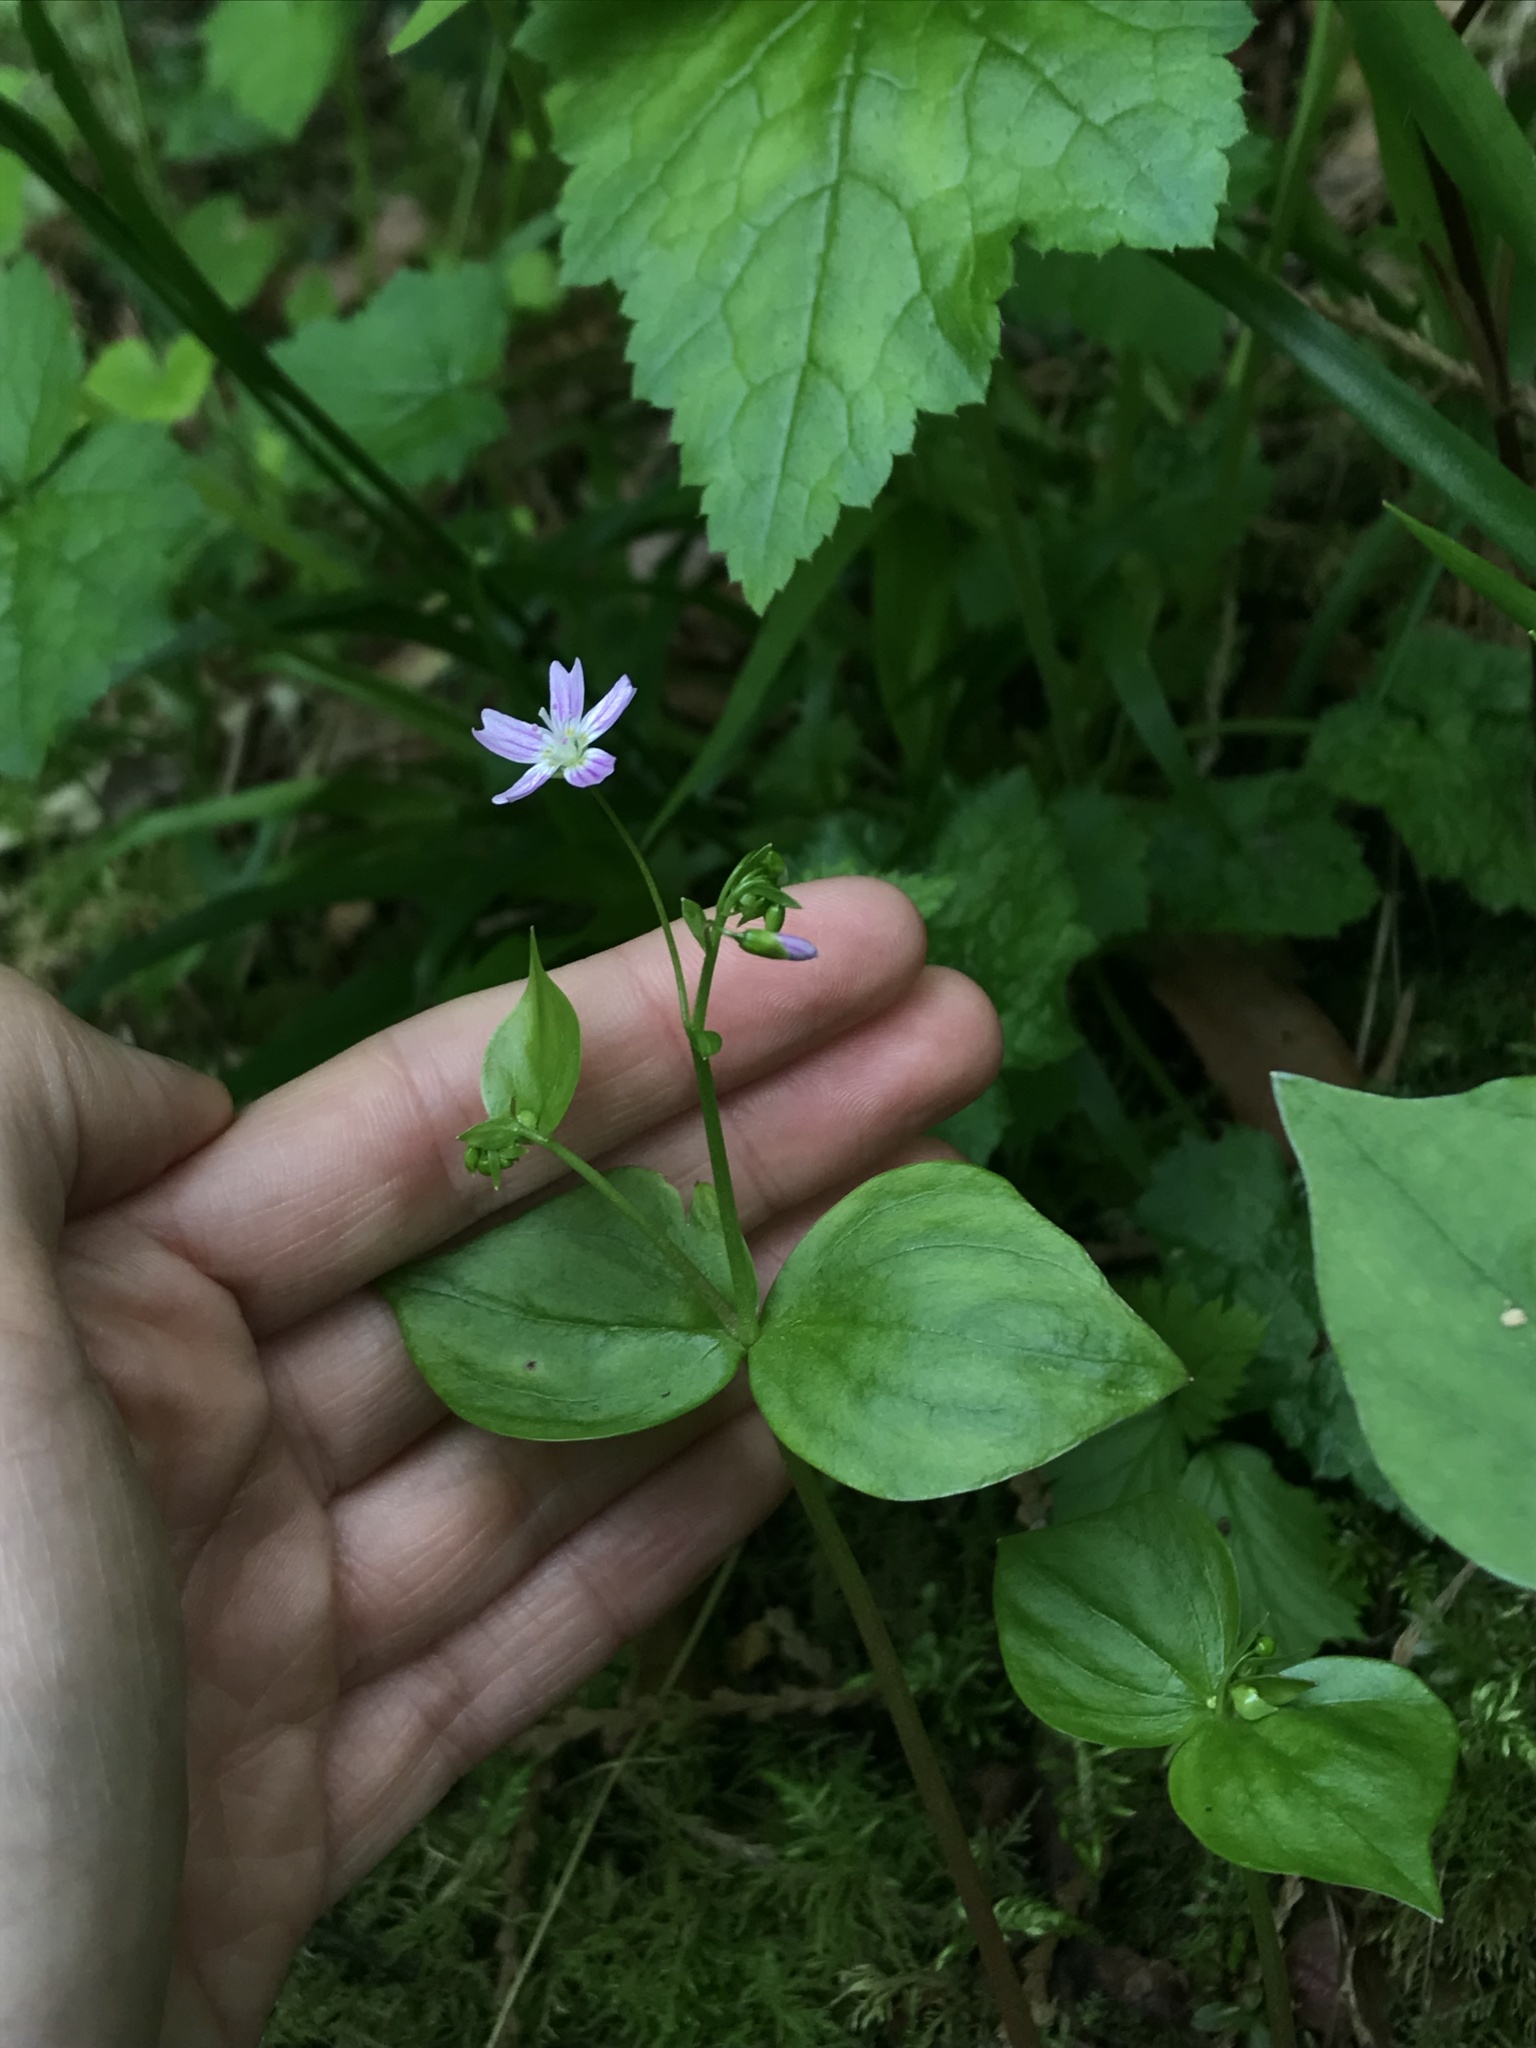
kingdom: Plantae
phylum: Tracheophyta
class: Magnoliopsida
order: Caryophyllales
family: Montiaceae
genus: Claytonia
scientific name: Claytonia sibirica
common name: Pink purslane
